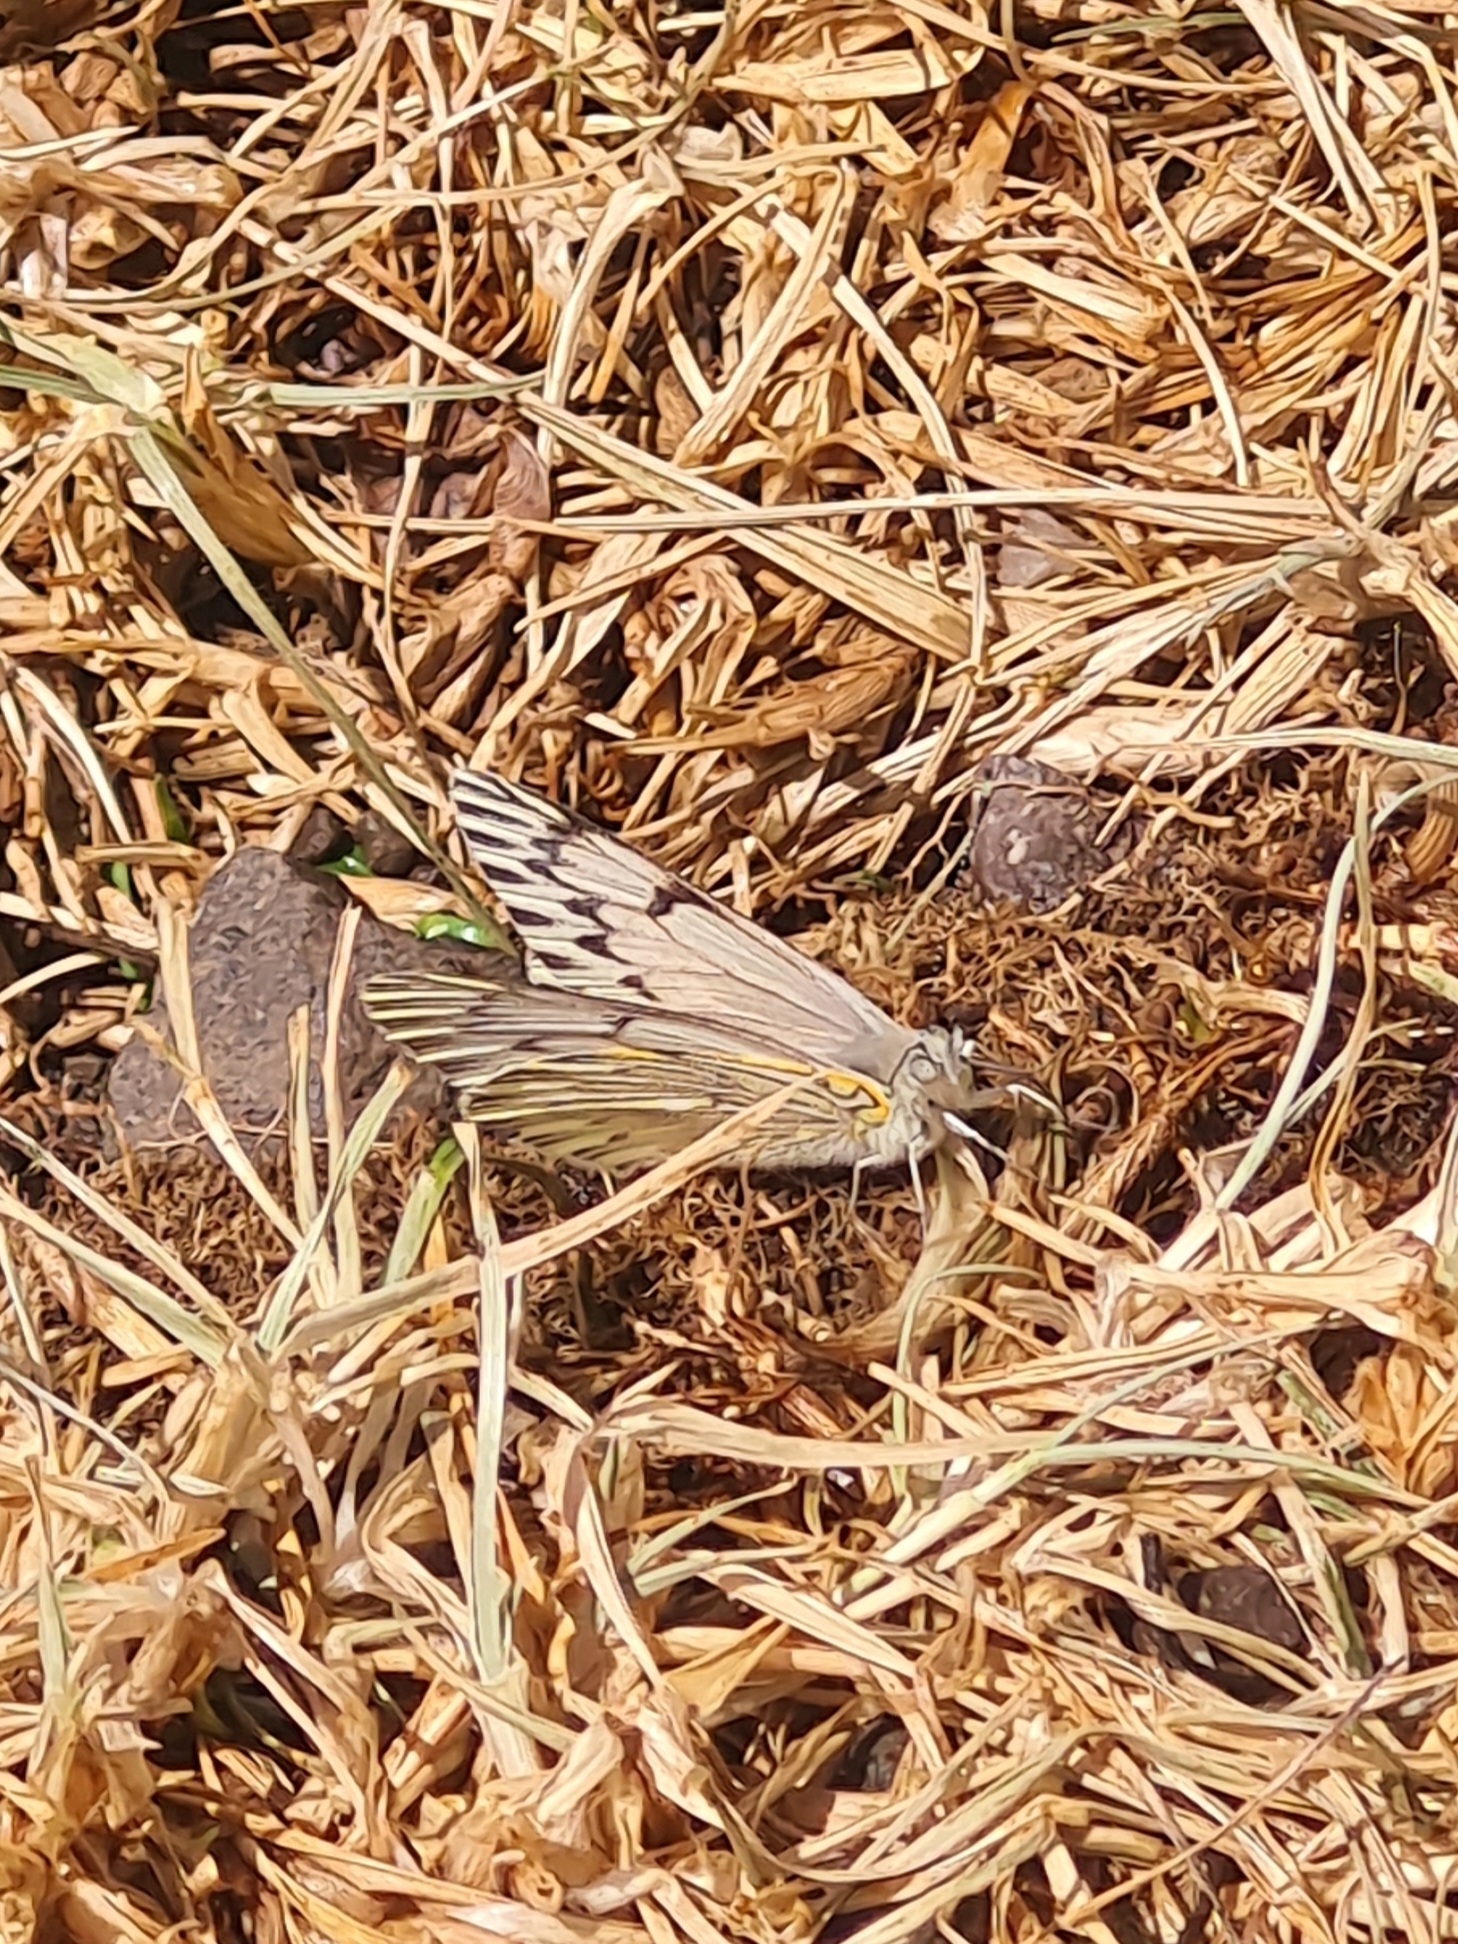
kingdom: Animalia
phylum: Arthropoda
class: Insecta
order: Lepidoptera
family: Pieridae
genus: Tatochila
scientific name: Tatochila mercedis
